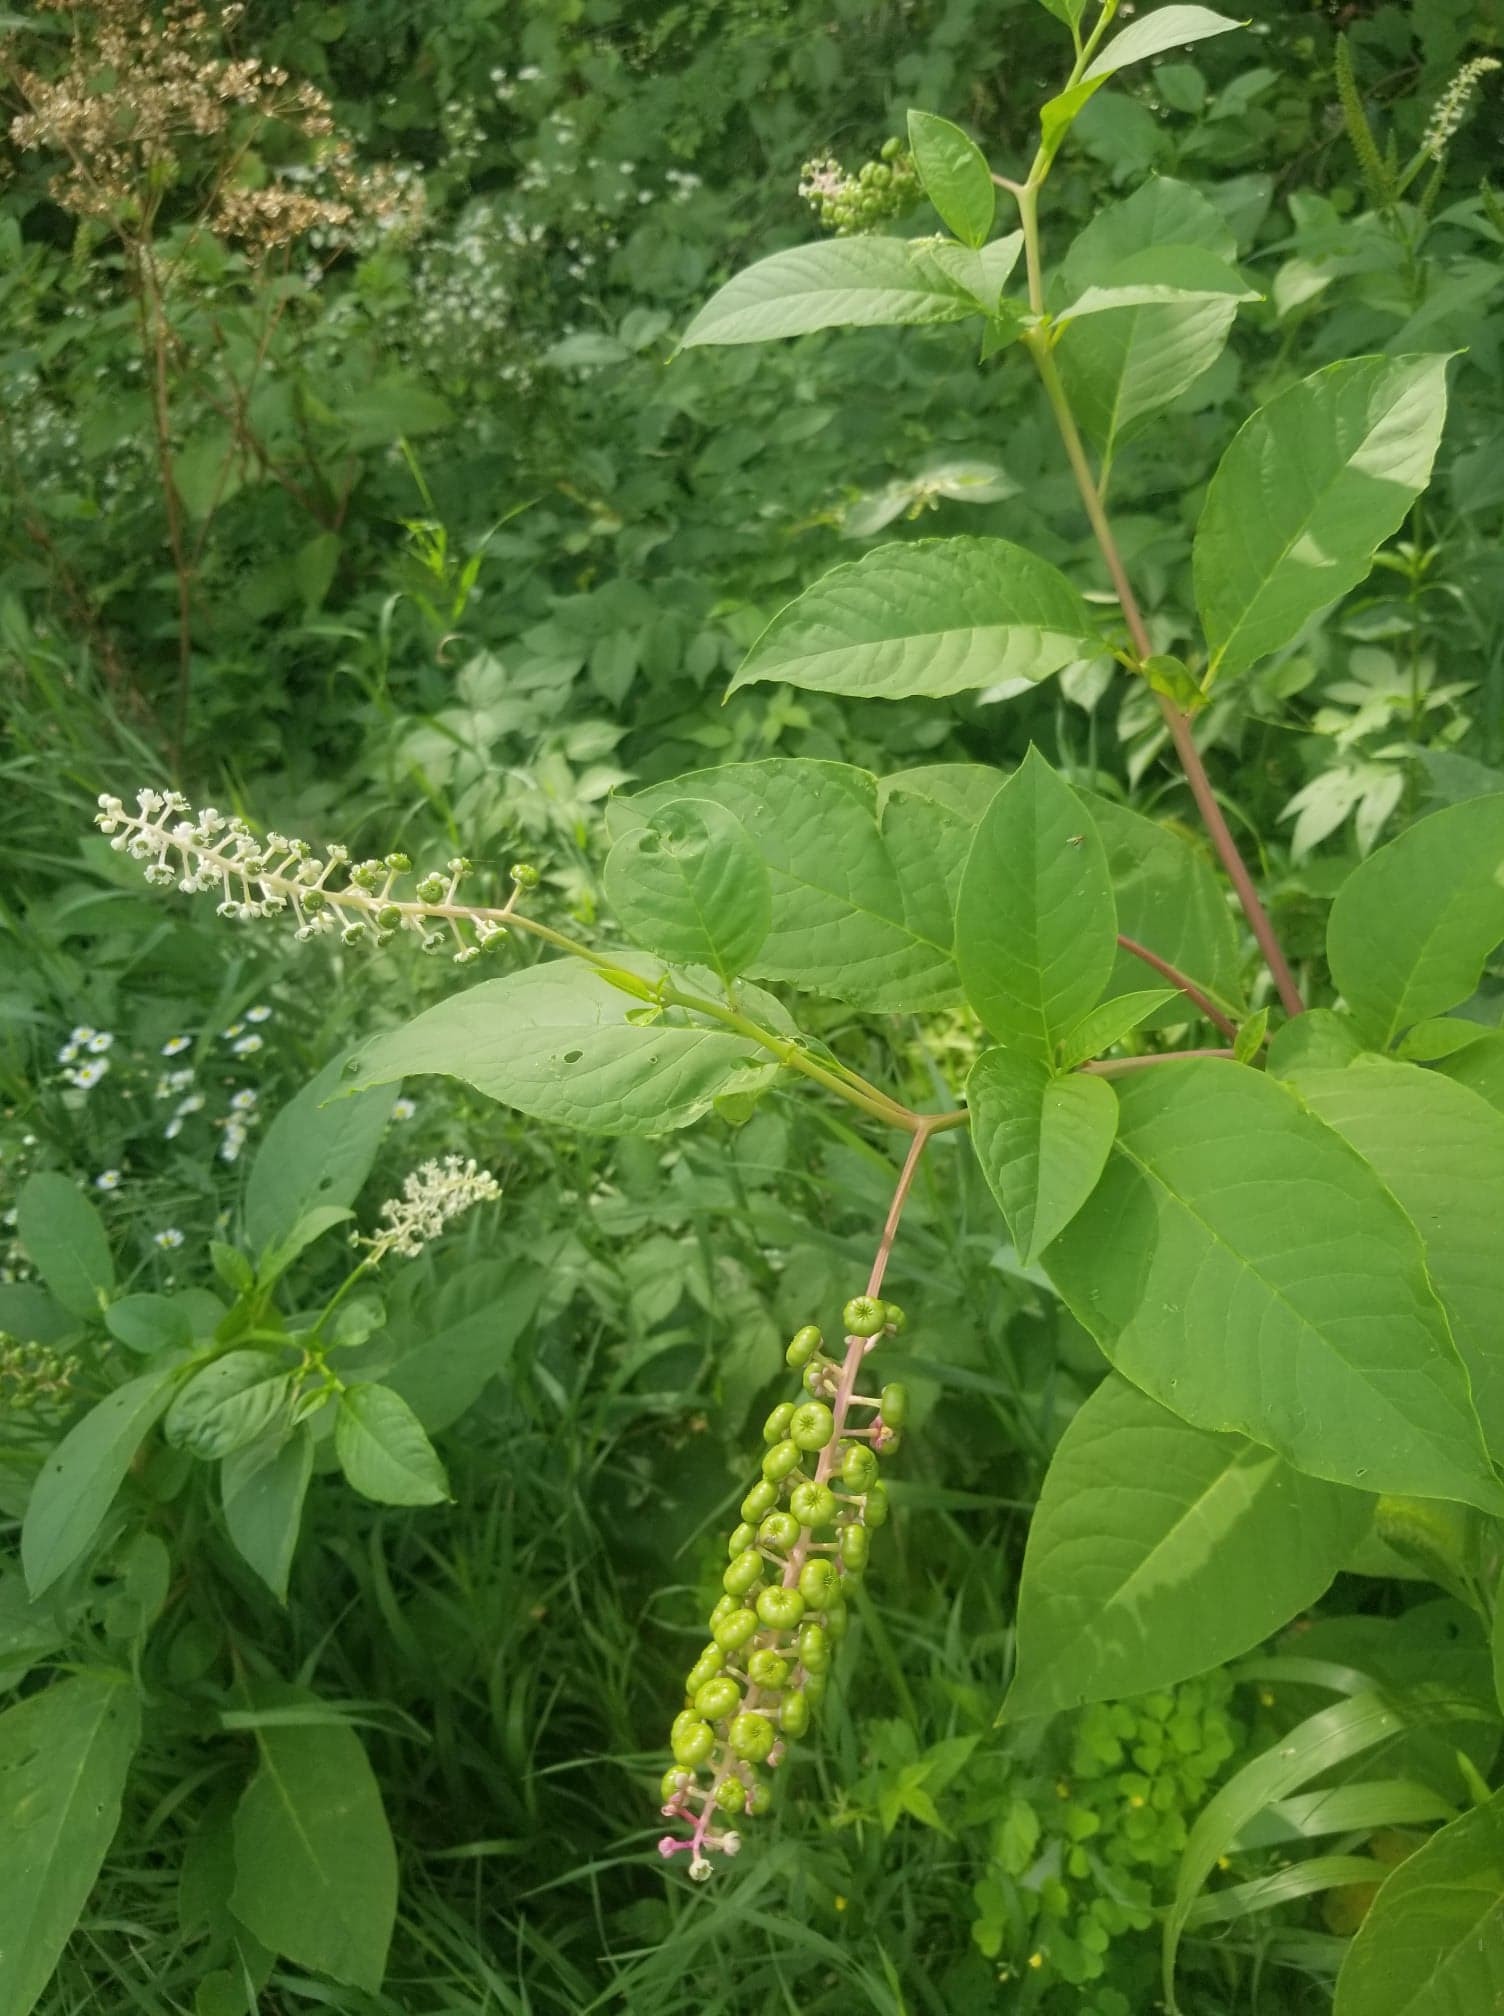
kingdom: Plantae
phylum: Tracheophyta
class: Magnoliopsida
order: Caryophyllales
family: Phytolaccaceae
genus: Phytolacca
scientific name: Phytolacca americana
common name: American pokeweed
